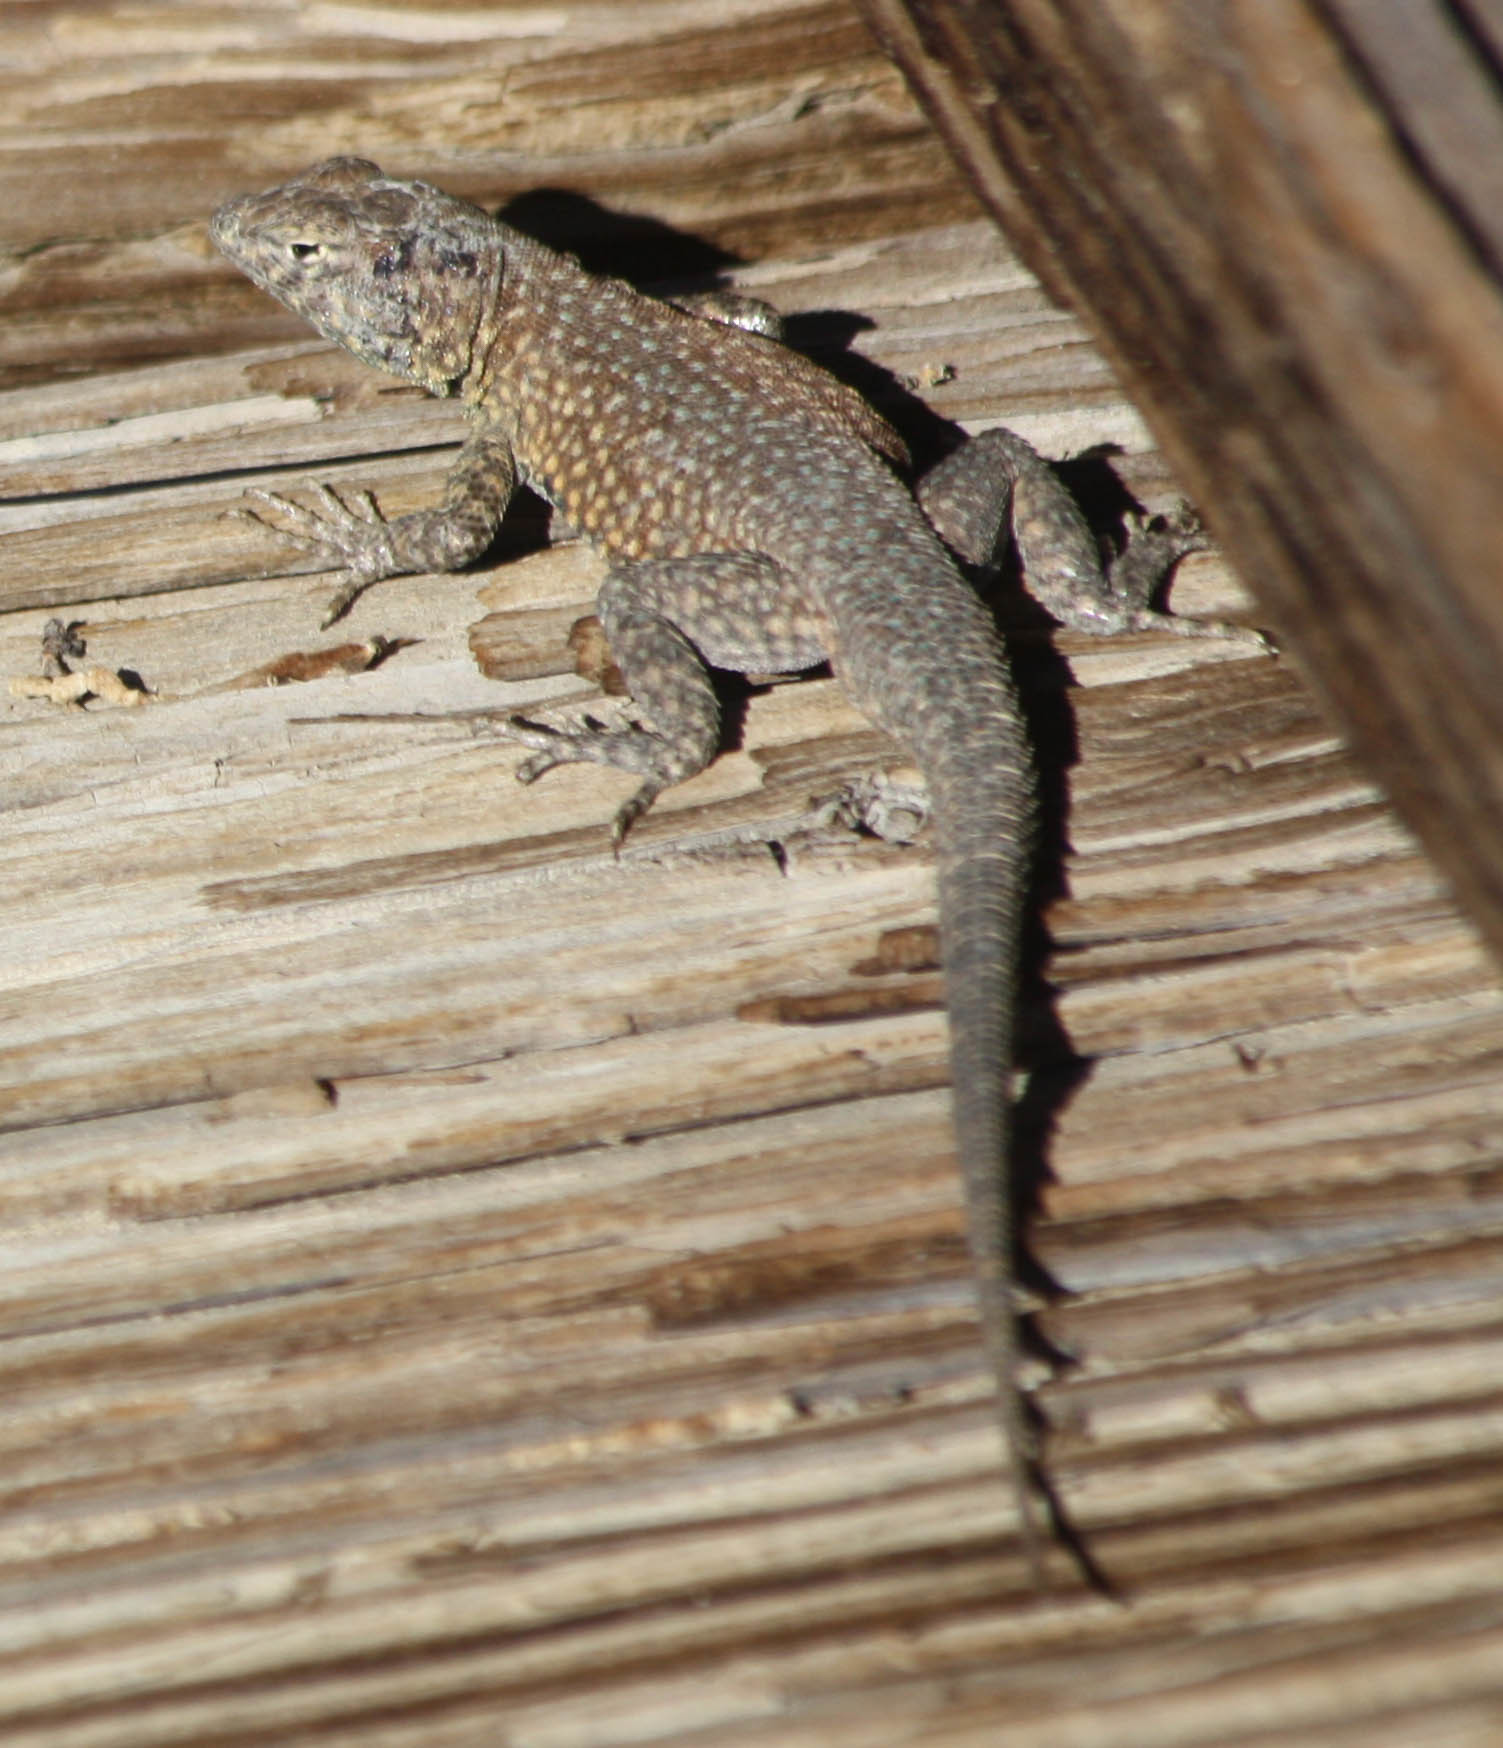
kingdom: Animalia
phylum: Chordata
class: Squamata
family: Phrynosomatidae
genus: Uta
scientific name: Uta stansburiana
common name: Side-blotched lizard
